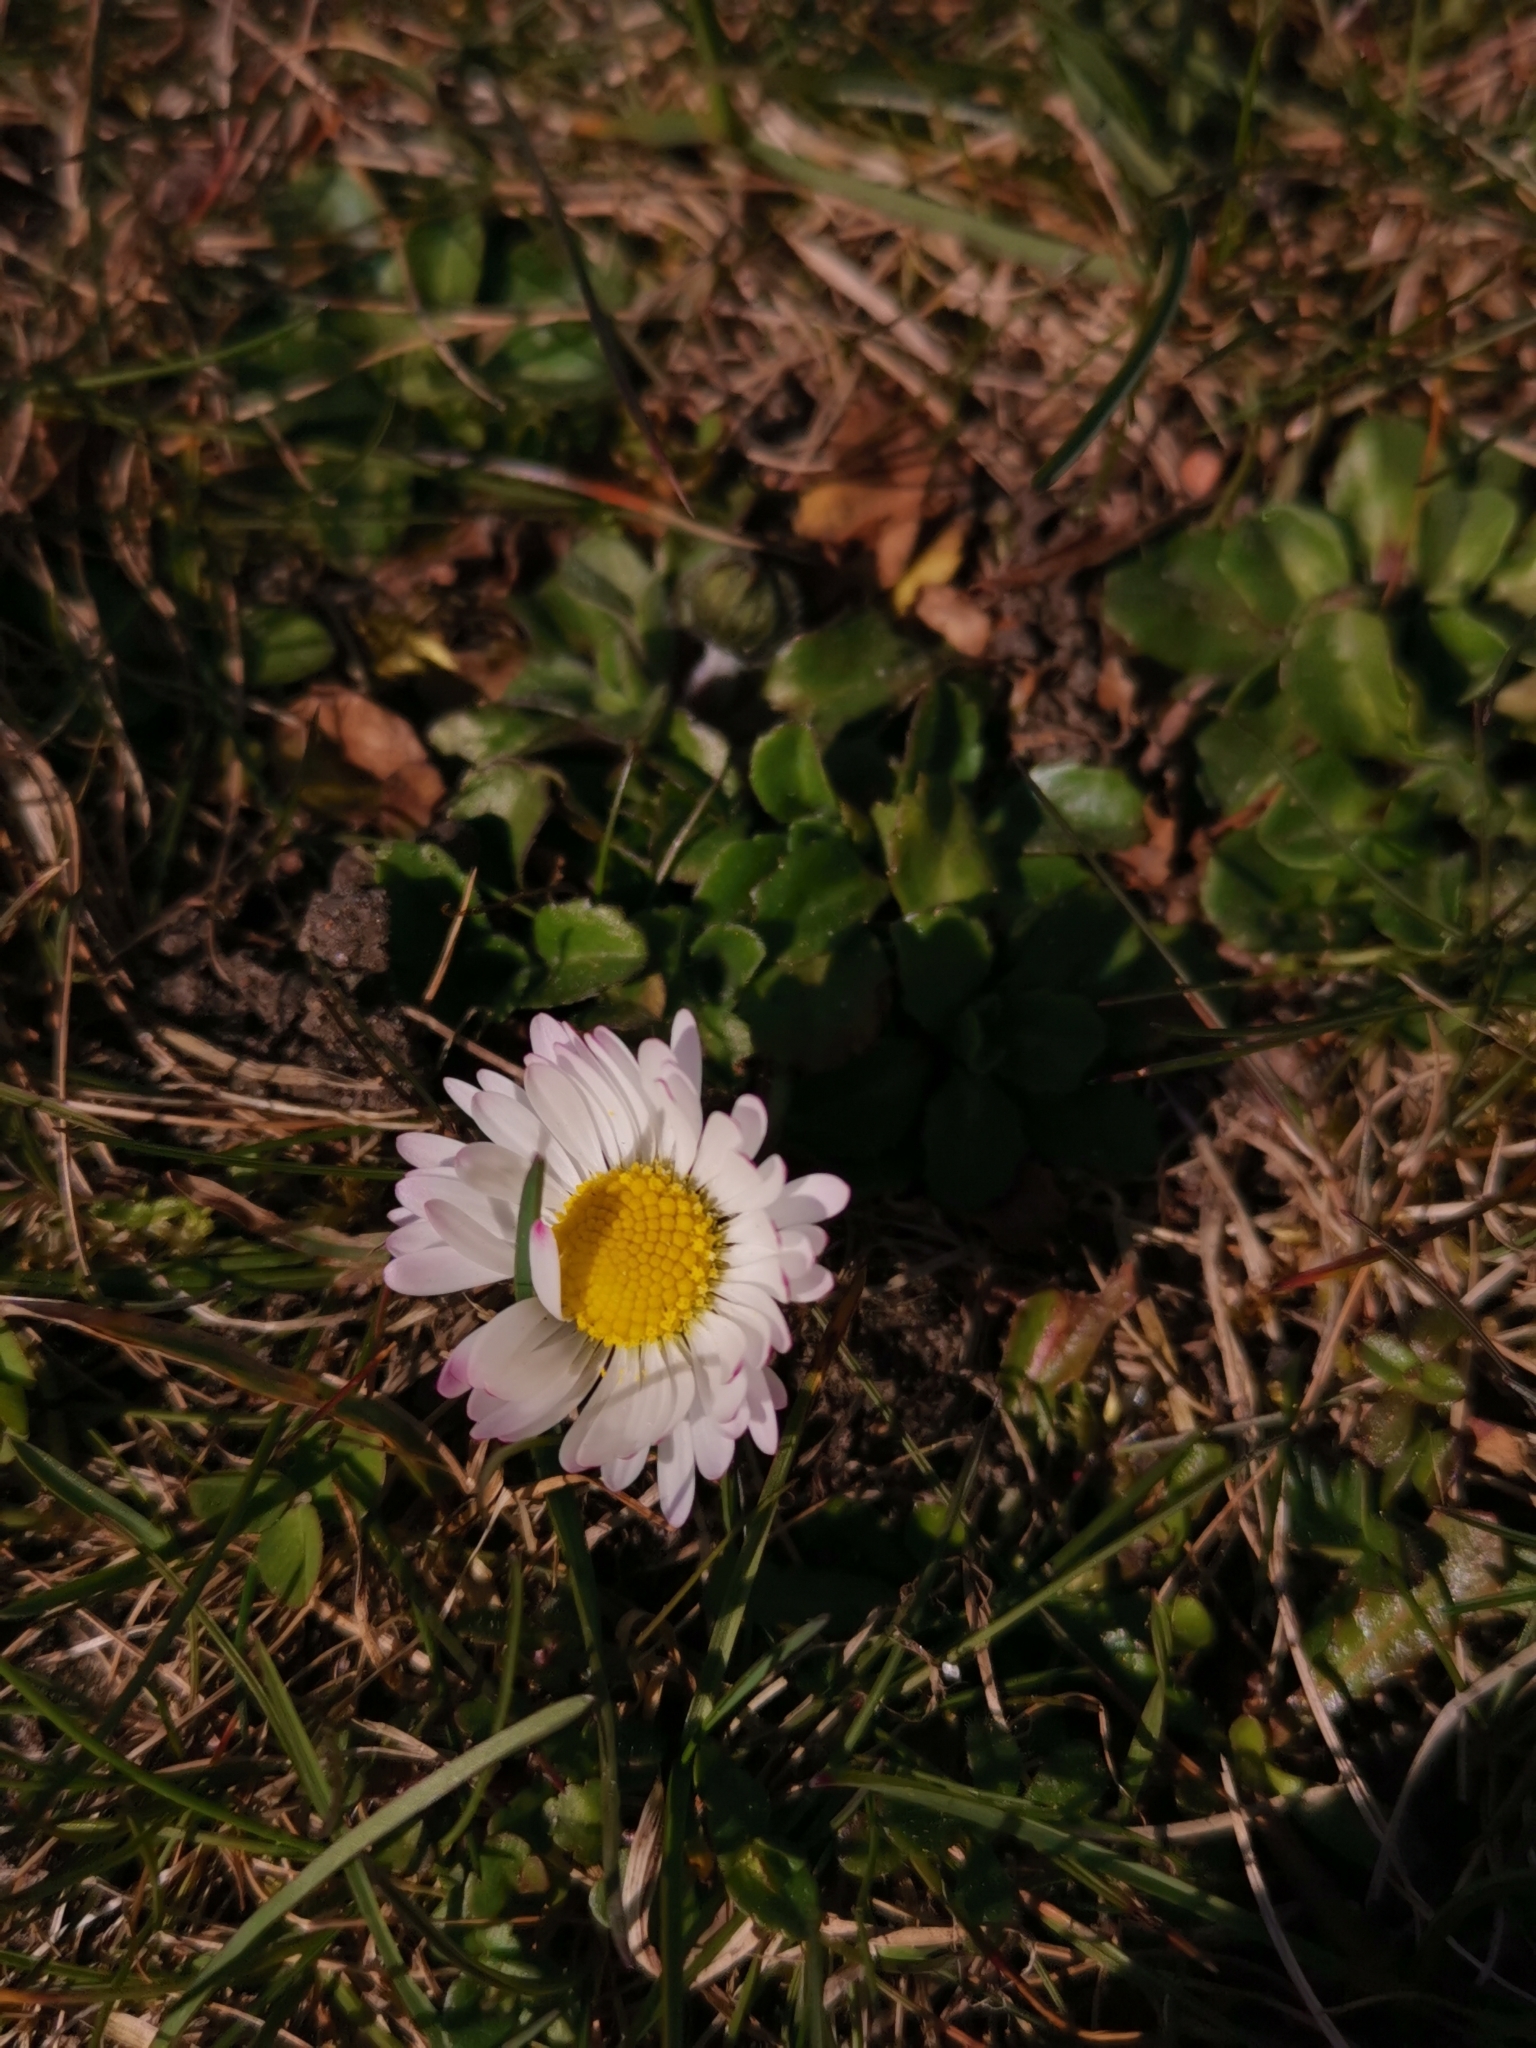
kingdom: Plantae
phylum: Tracheophyta
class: Magnoliopsida
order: Asterales
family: Asteraceae
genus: Bellis
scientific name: Bellis perennis
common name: Lawndaisy
